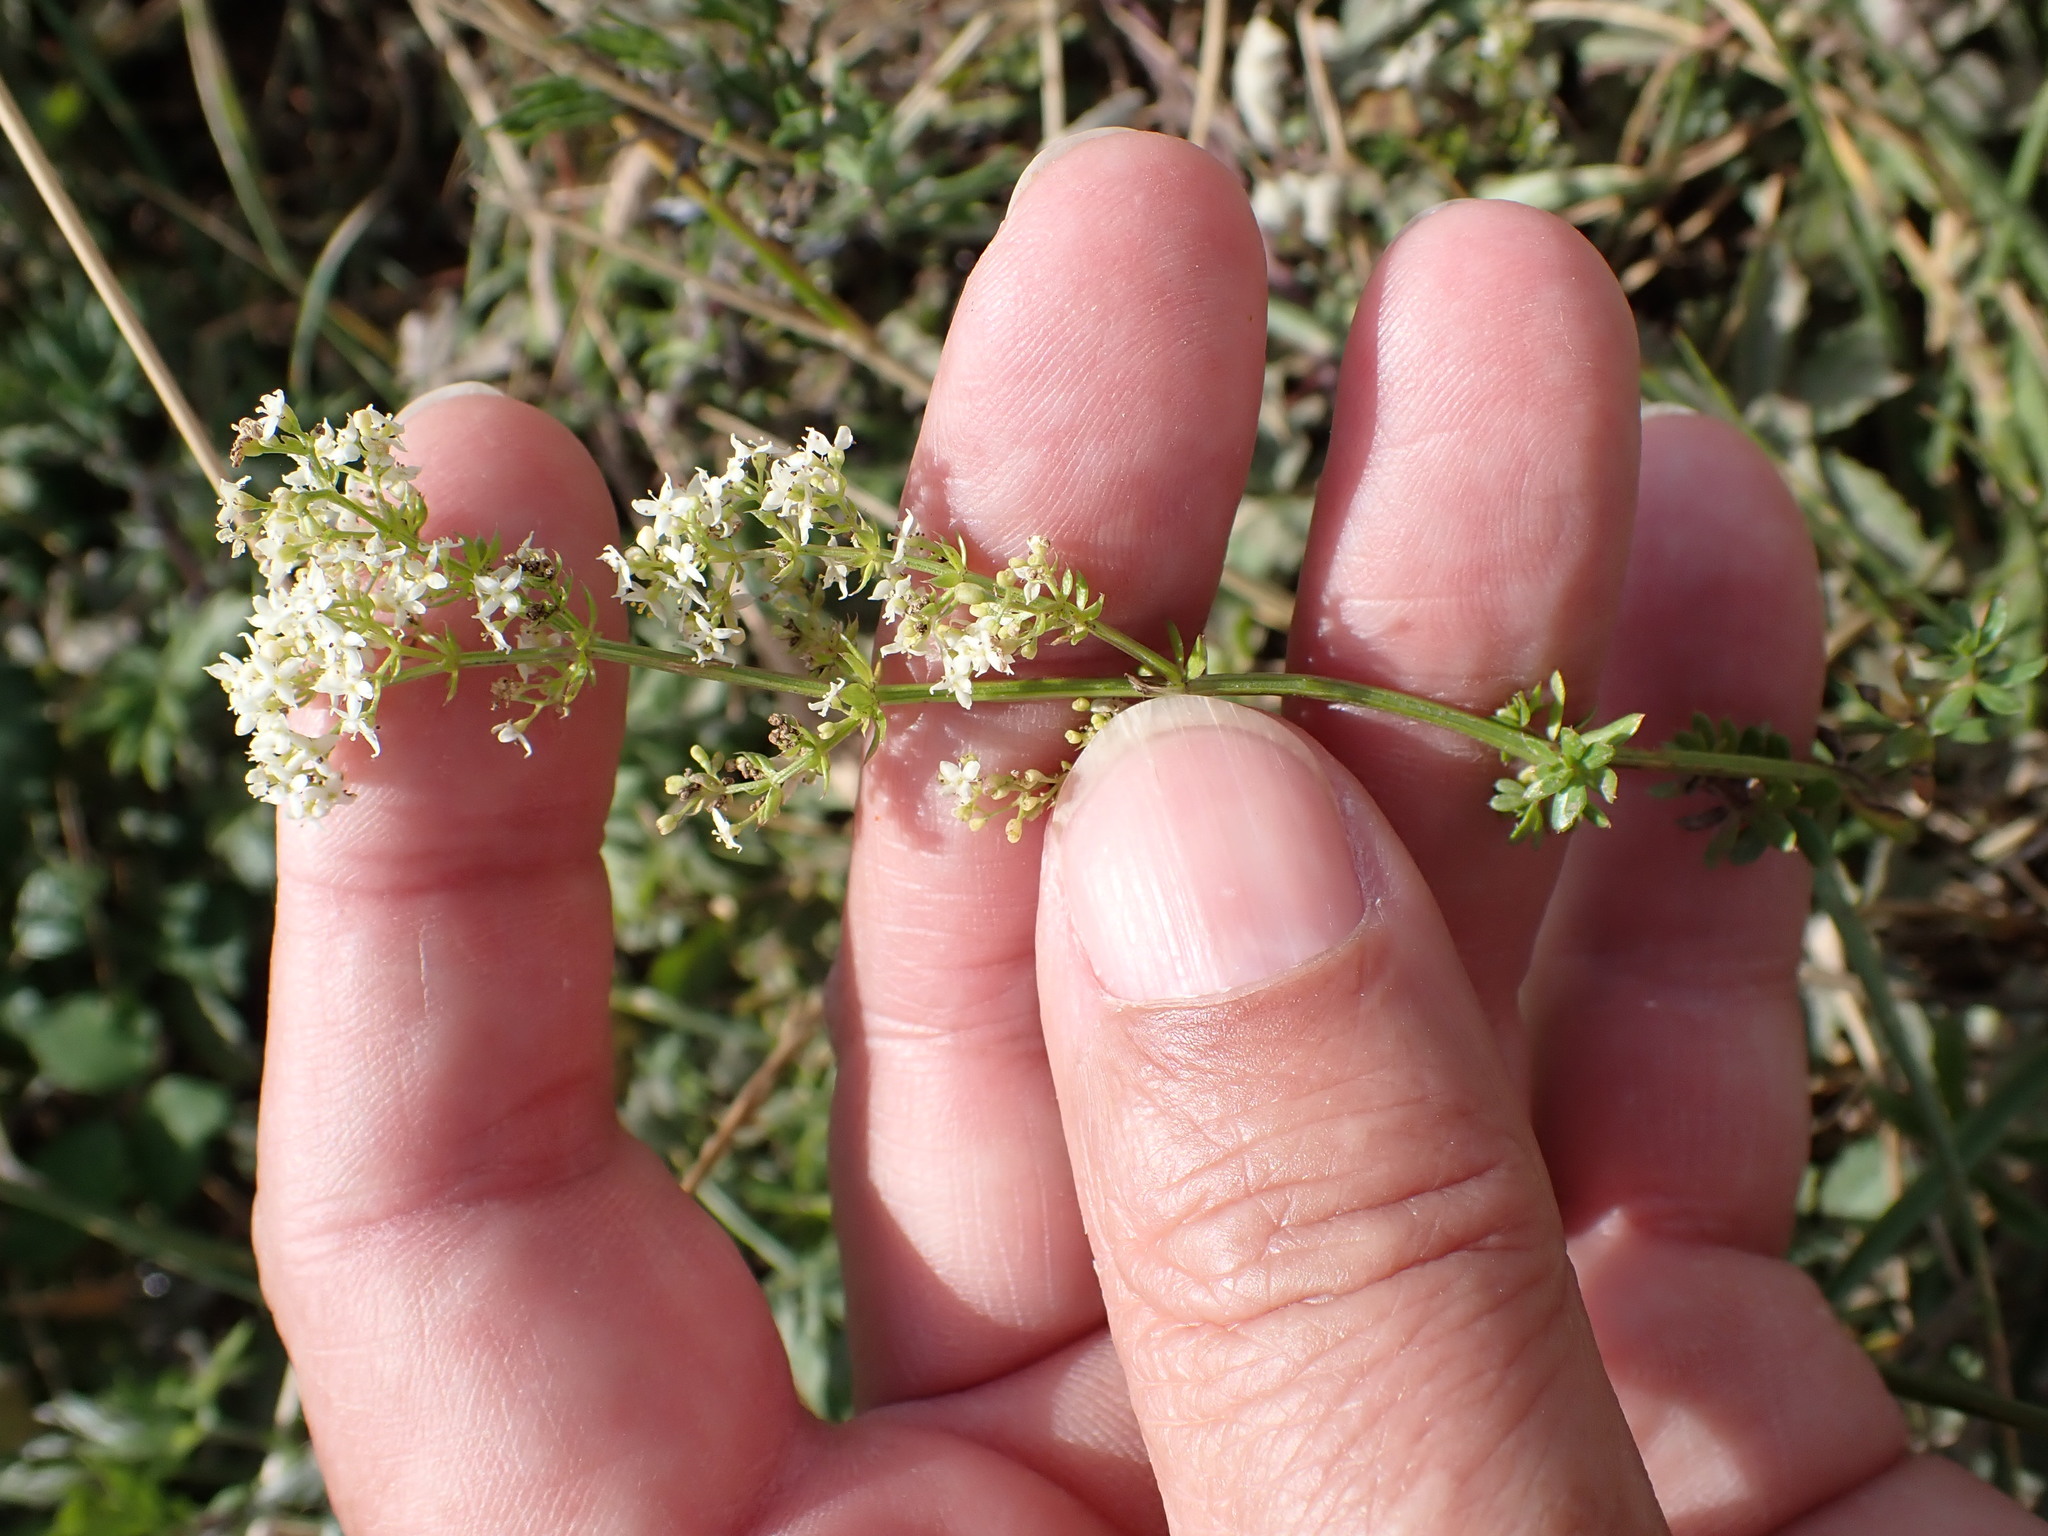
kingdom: Plantae
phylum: Tracheophyta
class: Magnoliopsida
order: Gentianales
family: Rubiaceae
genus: Galium
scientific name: Galium album
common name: White bedstraw
